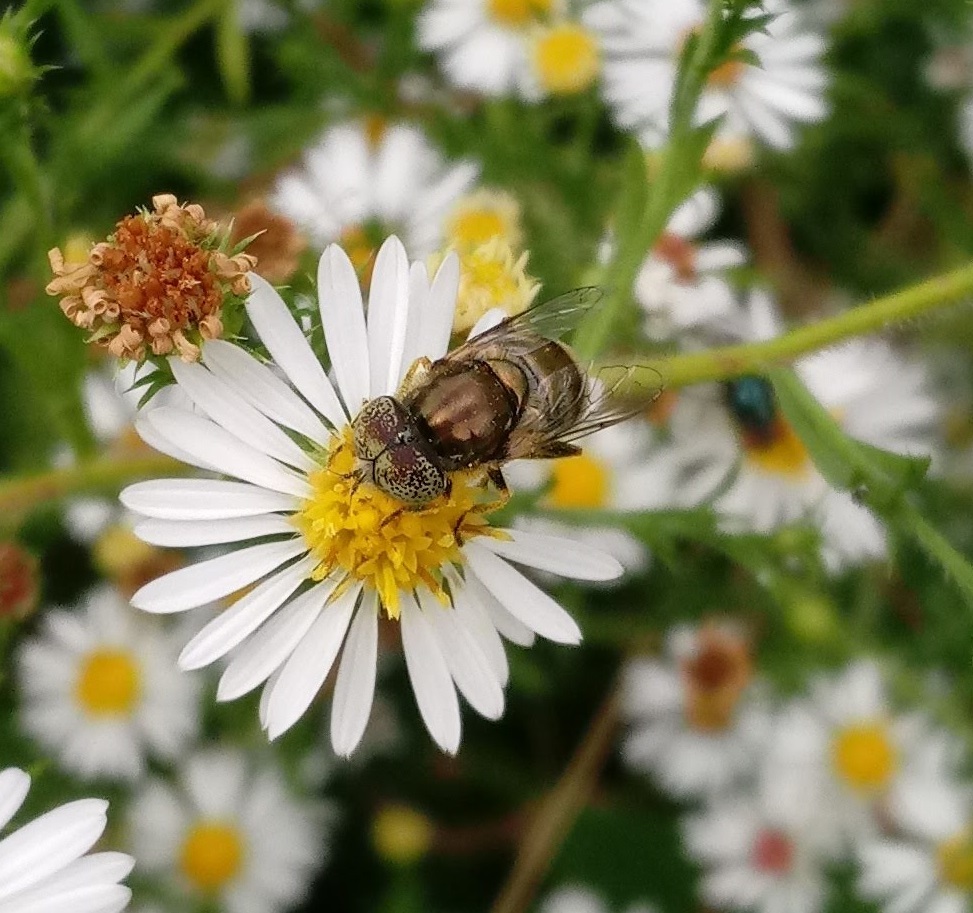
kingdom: Animalia
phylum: Arthropoda
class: Insecta
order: Diptera
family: Syrphidae
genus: Eristalinus
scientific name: Eristalinus aeneus
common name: Syrphid fly
